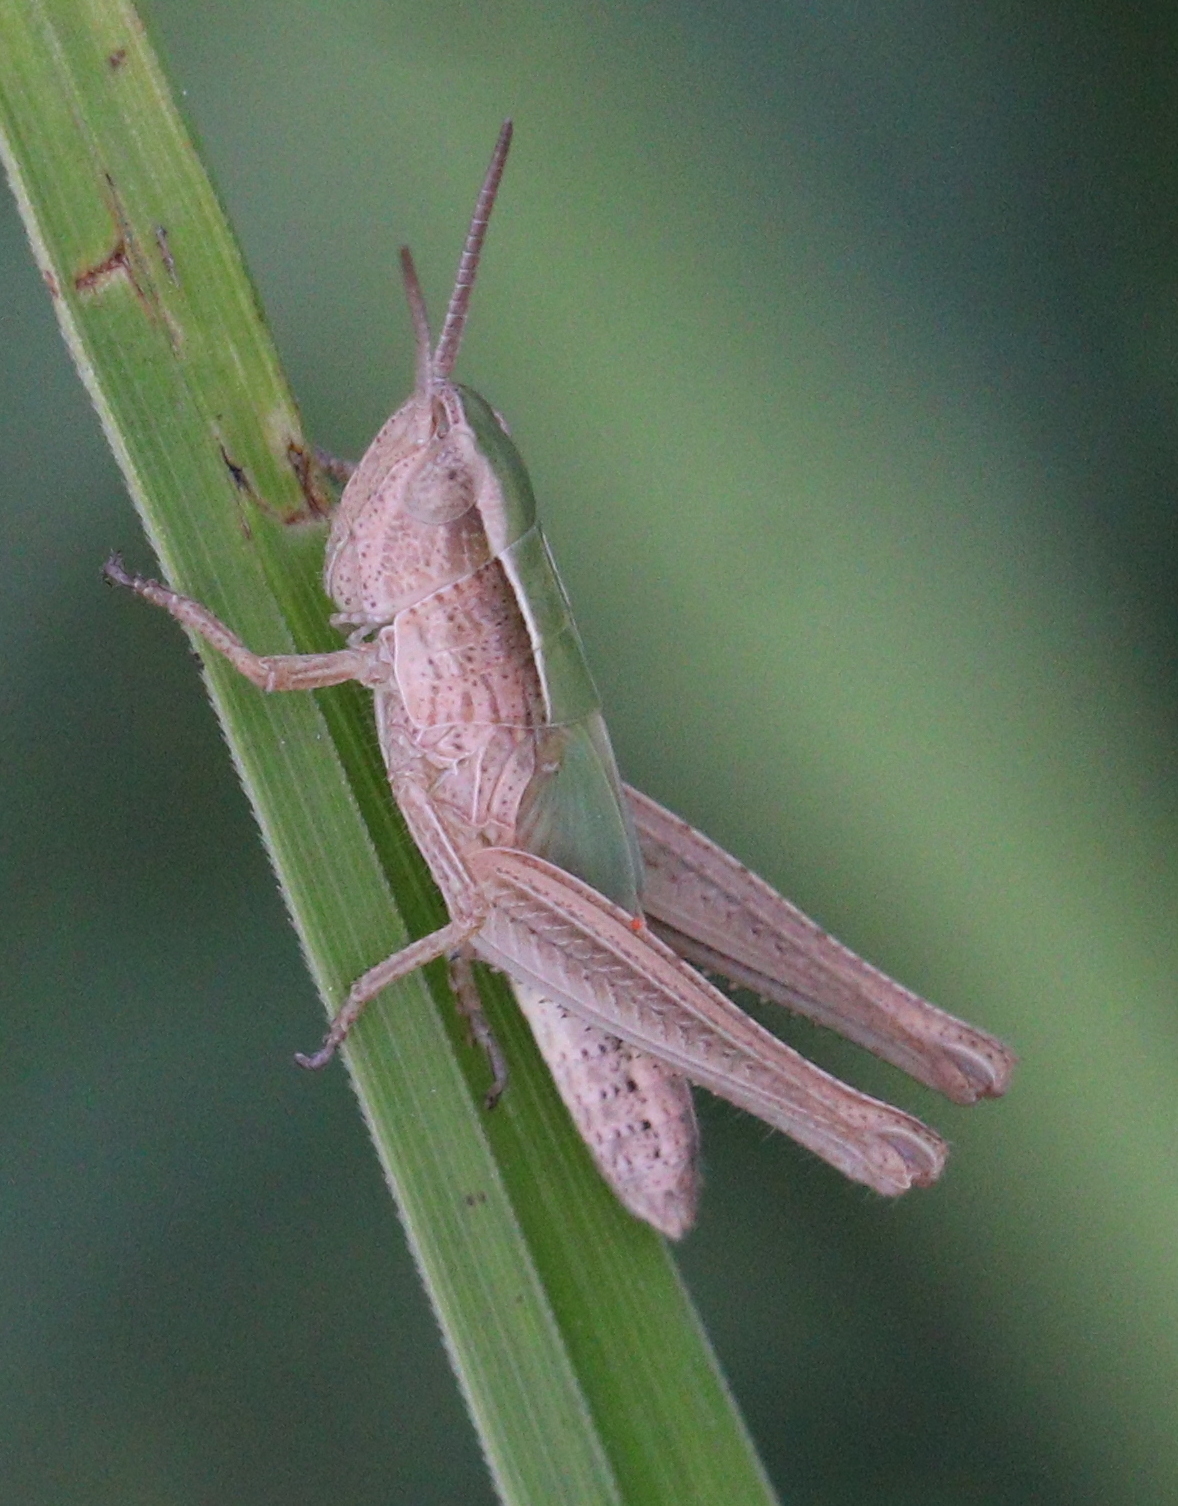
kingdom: Animalia
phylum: Arthropoda
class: Insecta
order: Orthoptera
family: Acrididae
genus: Chorthippus
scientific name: Chorthippus albomarginatus
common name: Lesser marsh grasshopper
